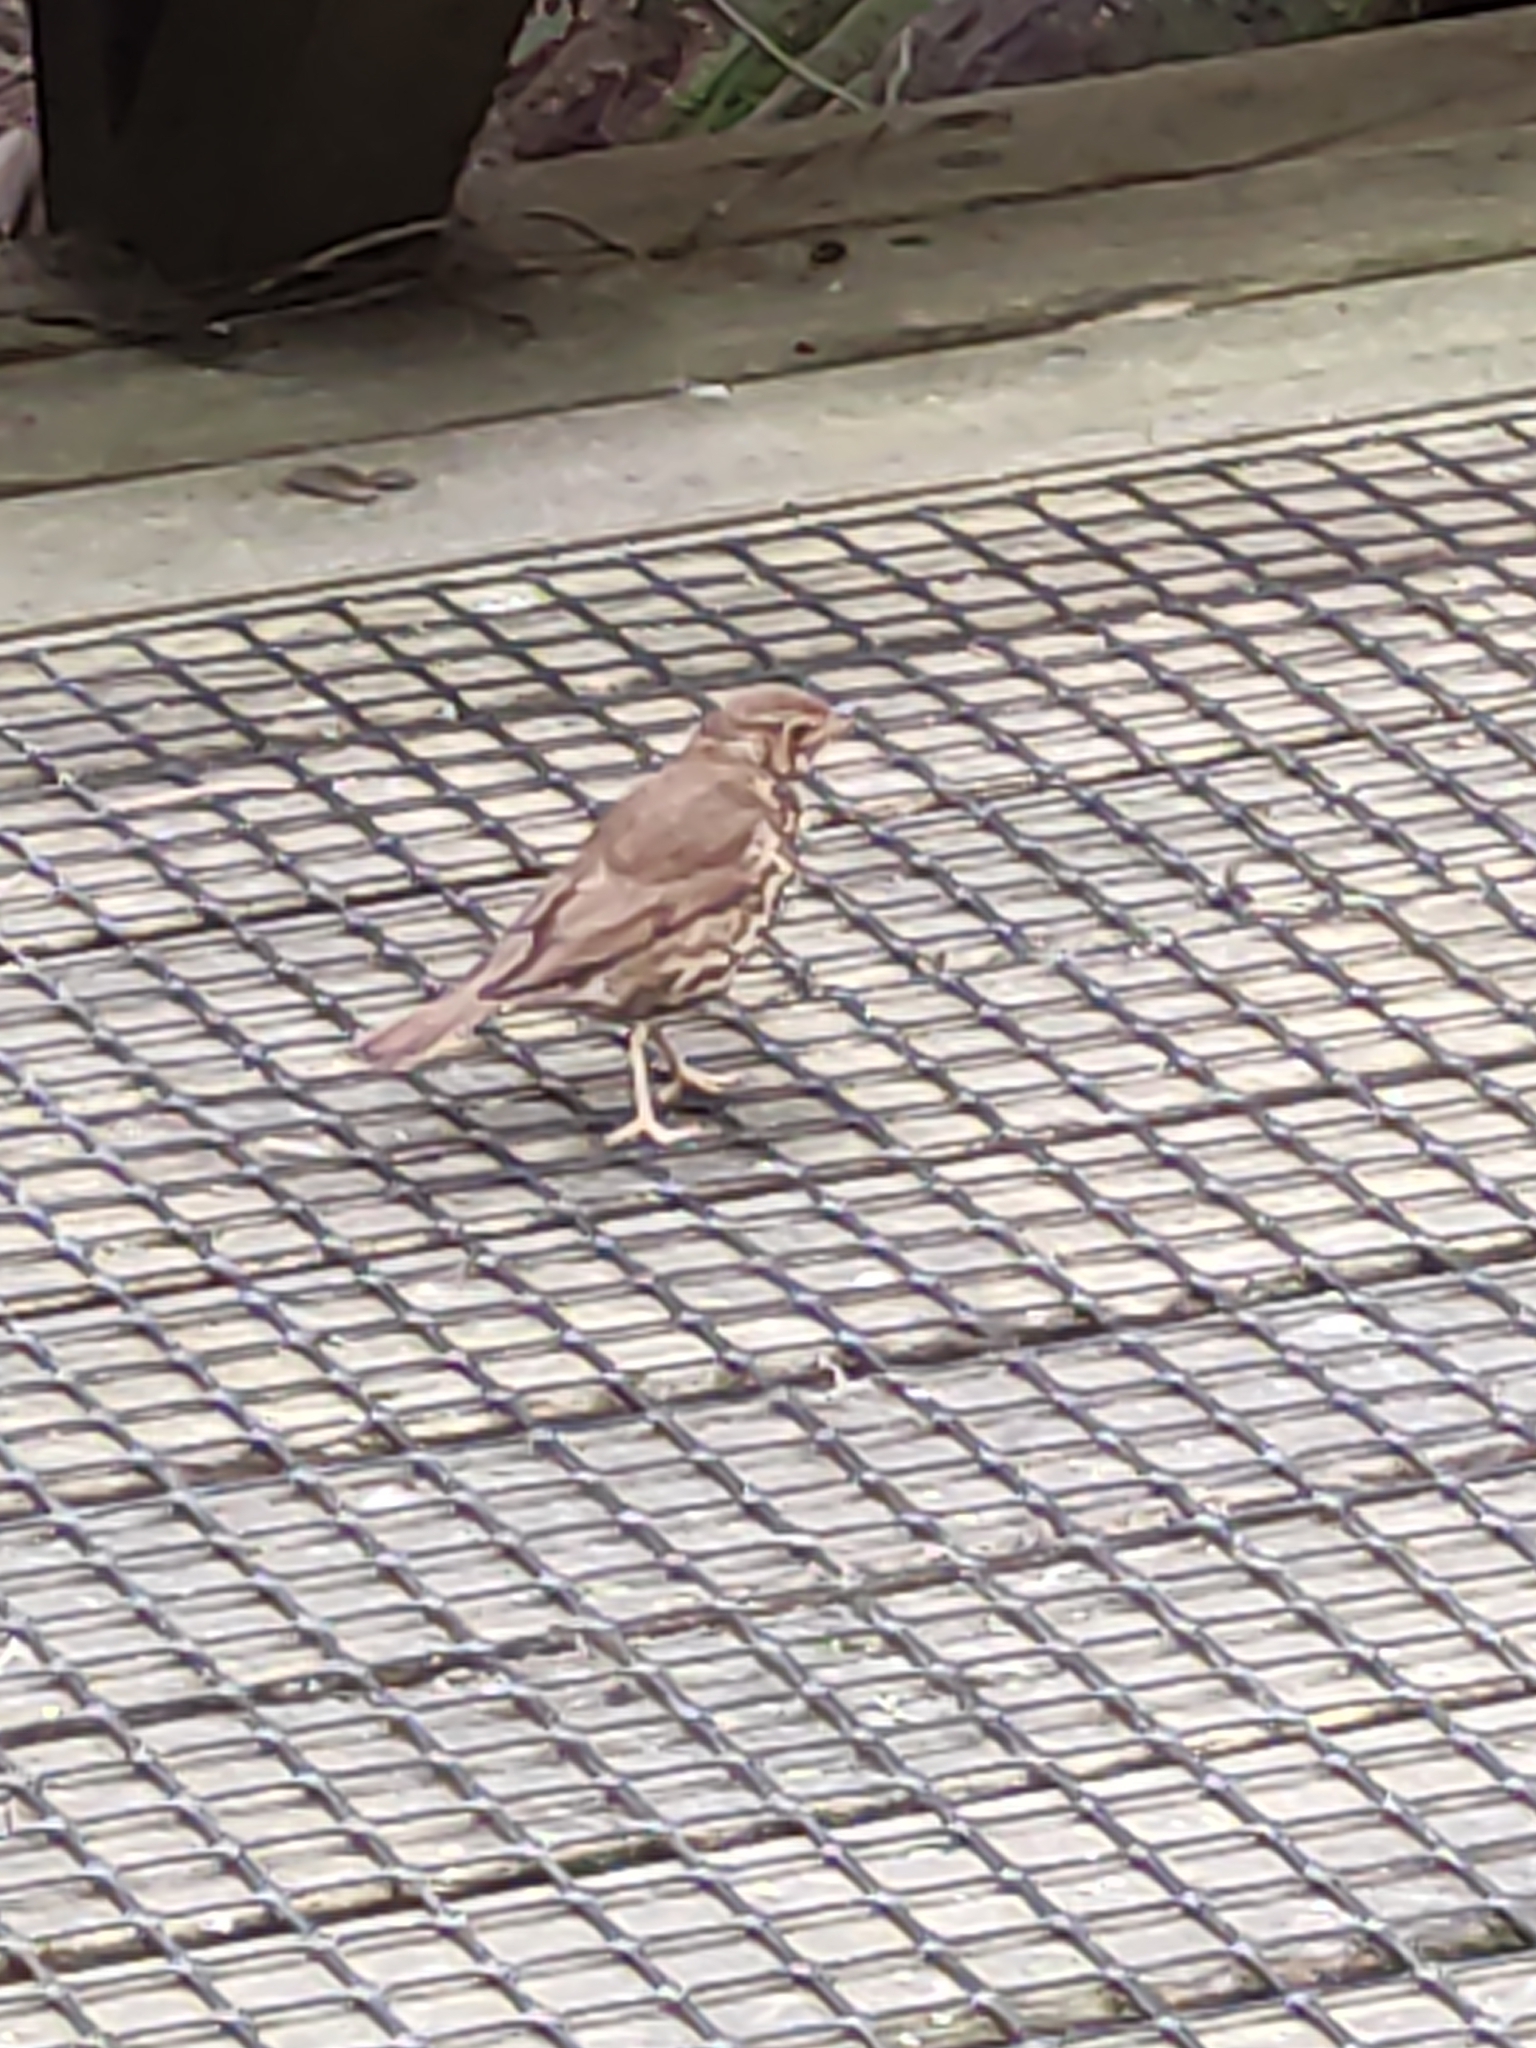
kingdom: Animalia
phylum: Chordata
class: Aves
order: Passeriformes
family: Turdidae
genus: Turdus
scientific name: Turdus philomelos
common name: Song thrush
